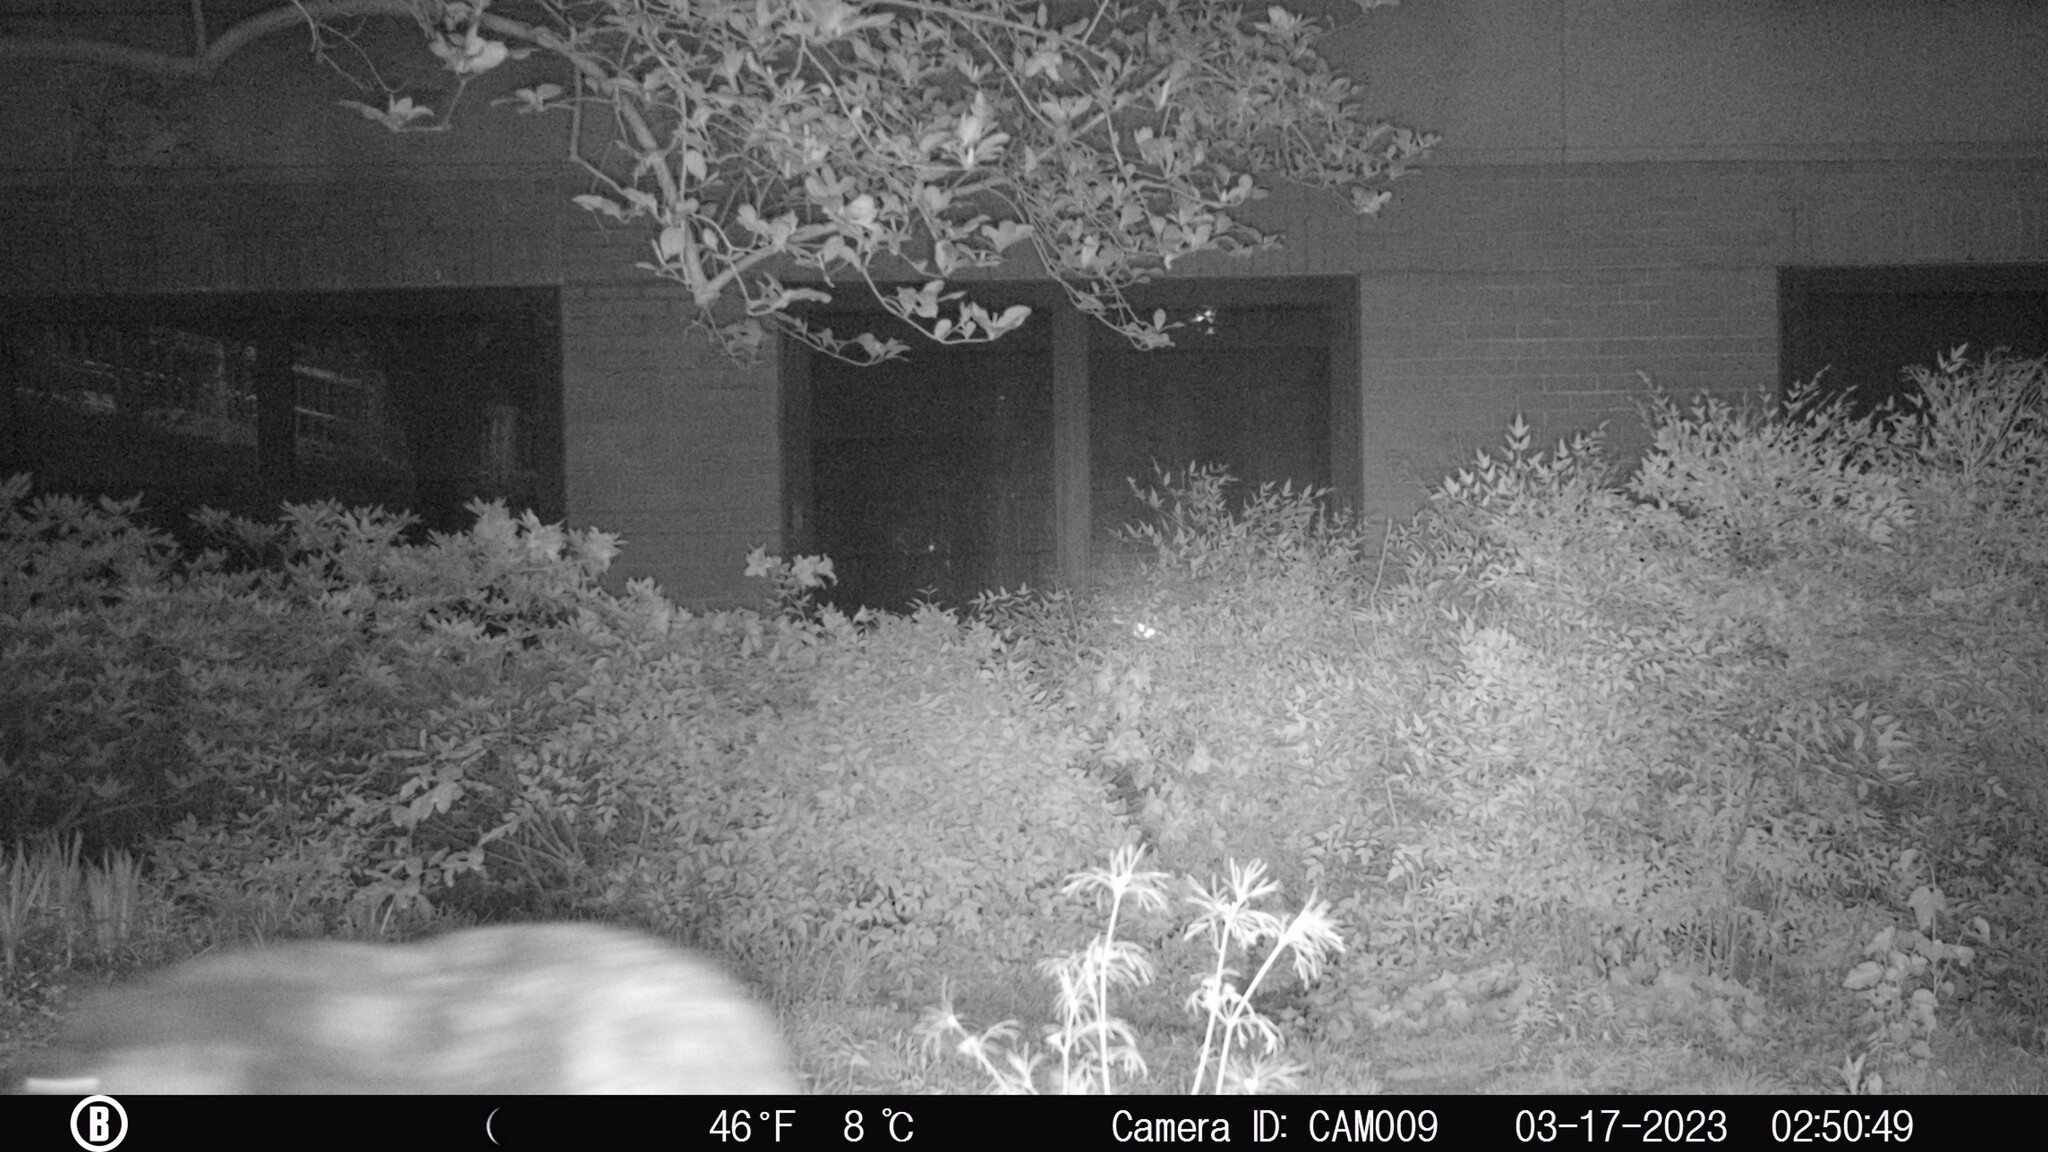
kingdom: Animalia
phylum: Chordata
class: Mammalia
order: Carnivora
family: Felidae
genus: Felis
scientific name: Felis catus
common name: Domestic cat
